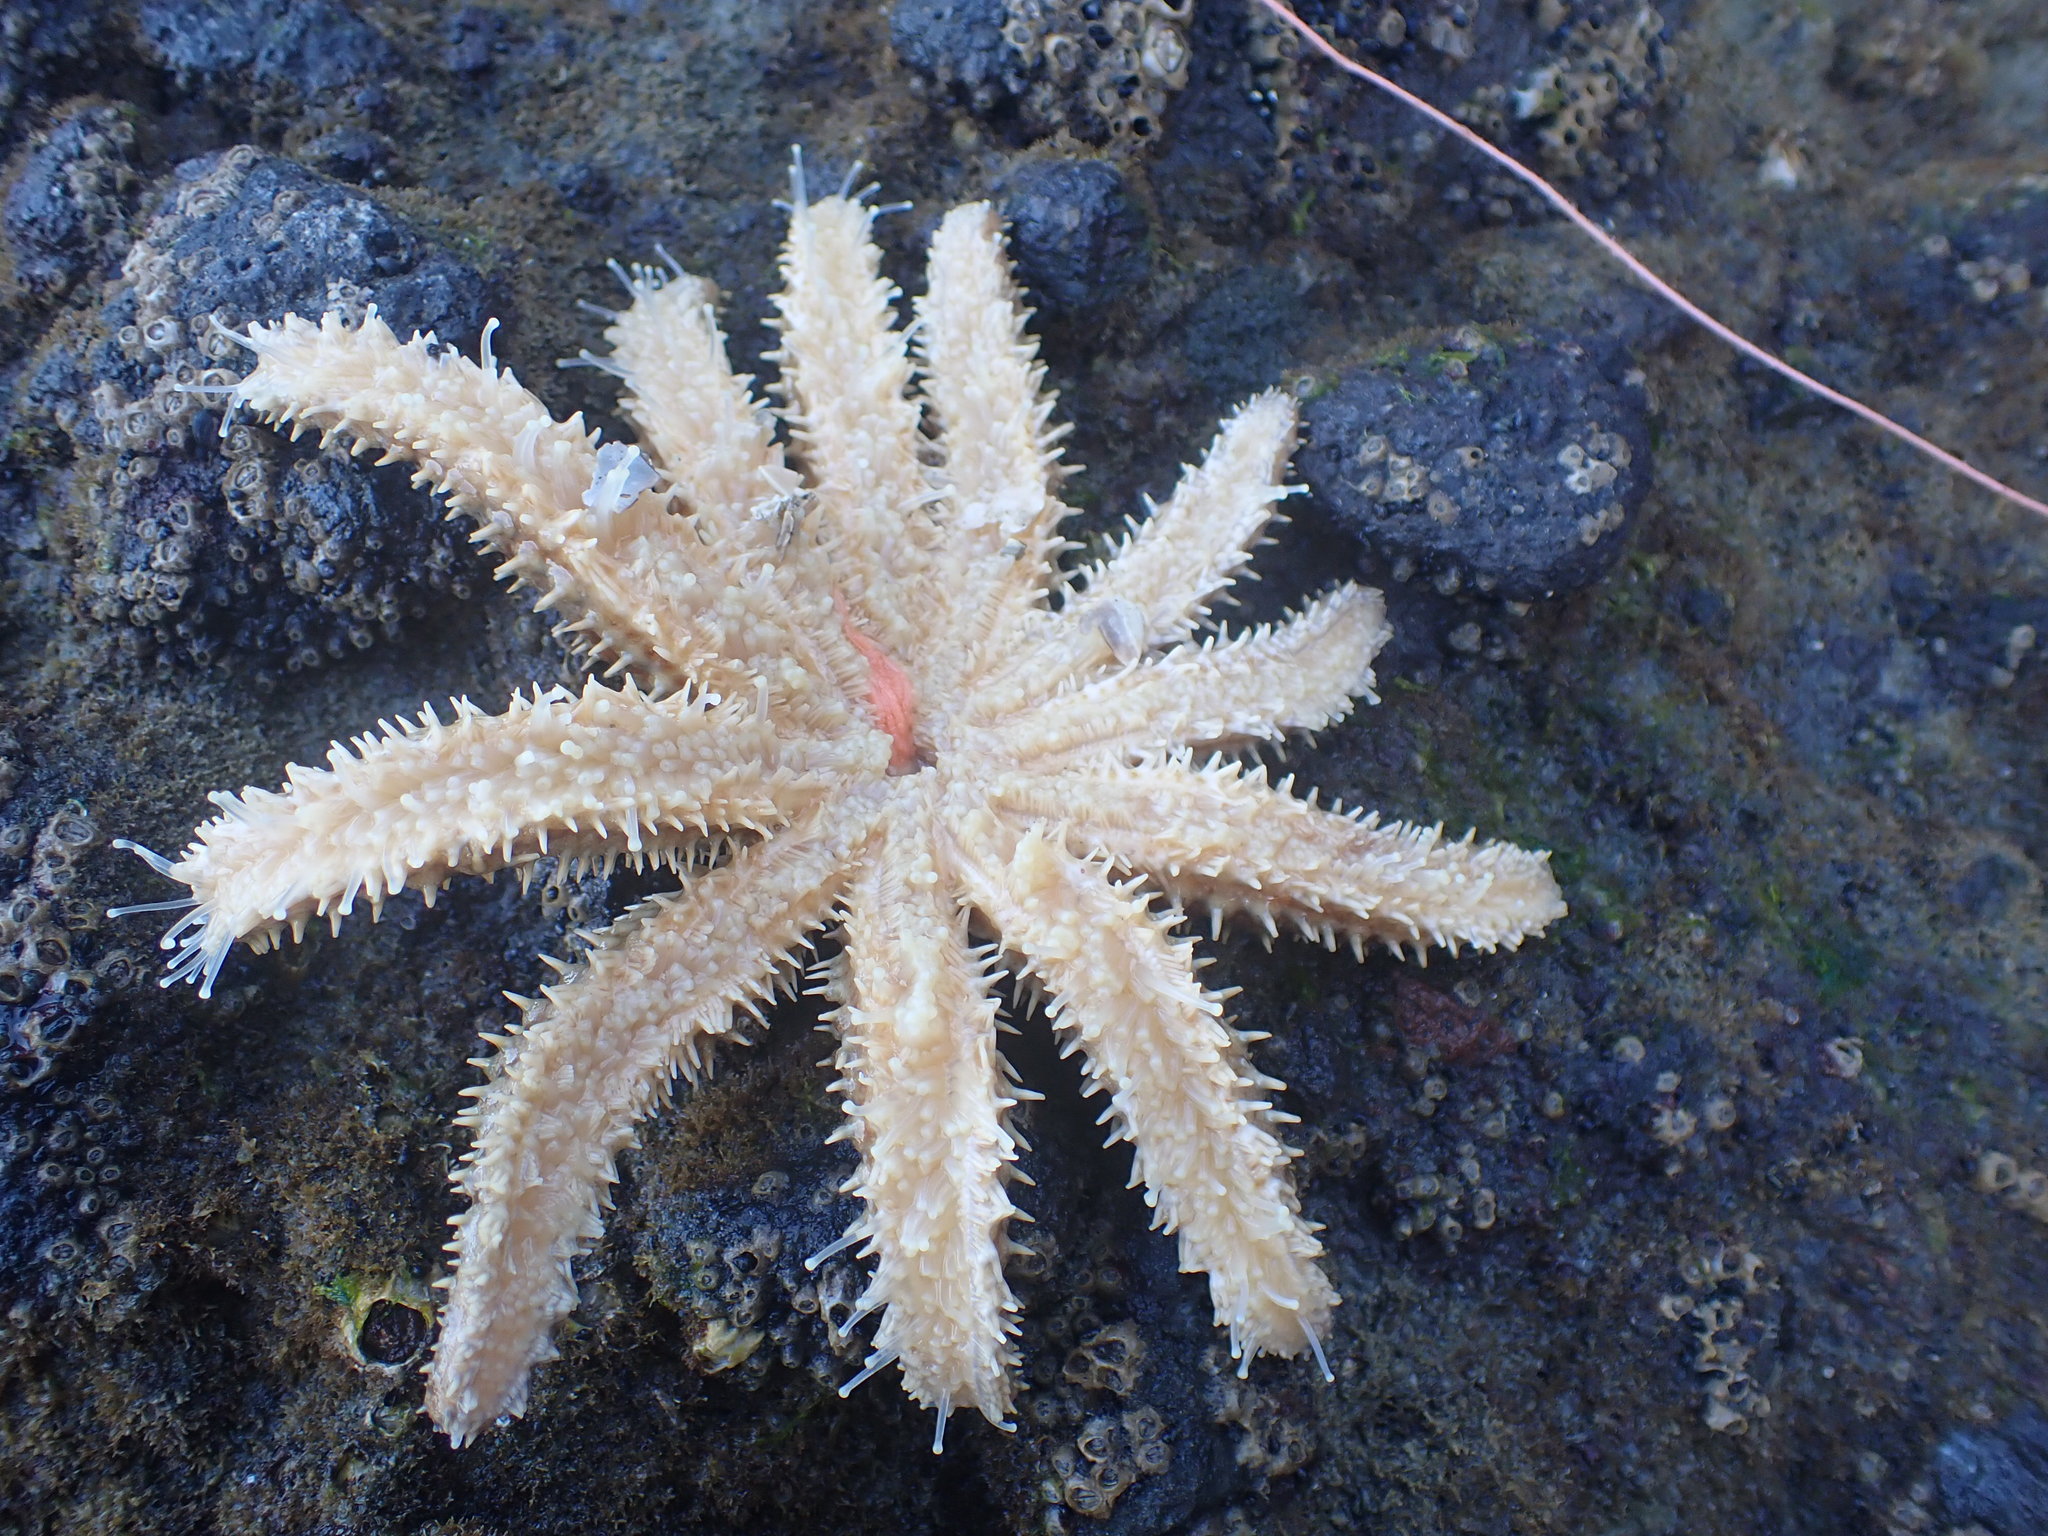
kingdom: Animalia
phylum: Echinodermata
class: Asteroidea
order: Forcipulatida
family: Asteriidae
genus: Coscinasterias
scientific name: Coscinasterias muricata
